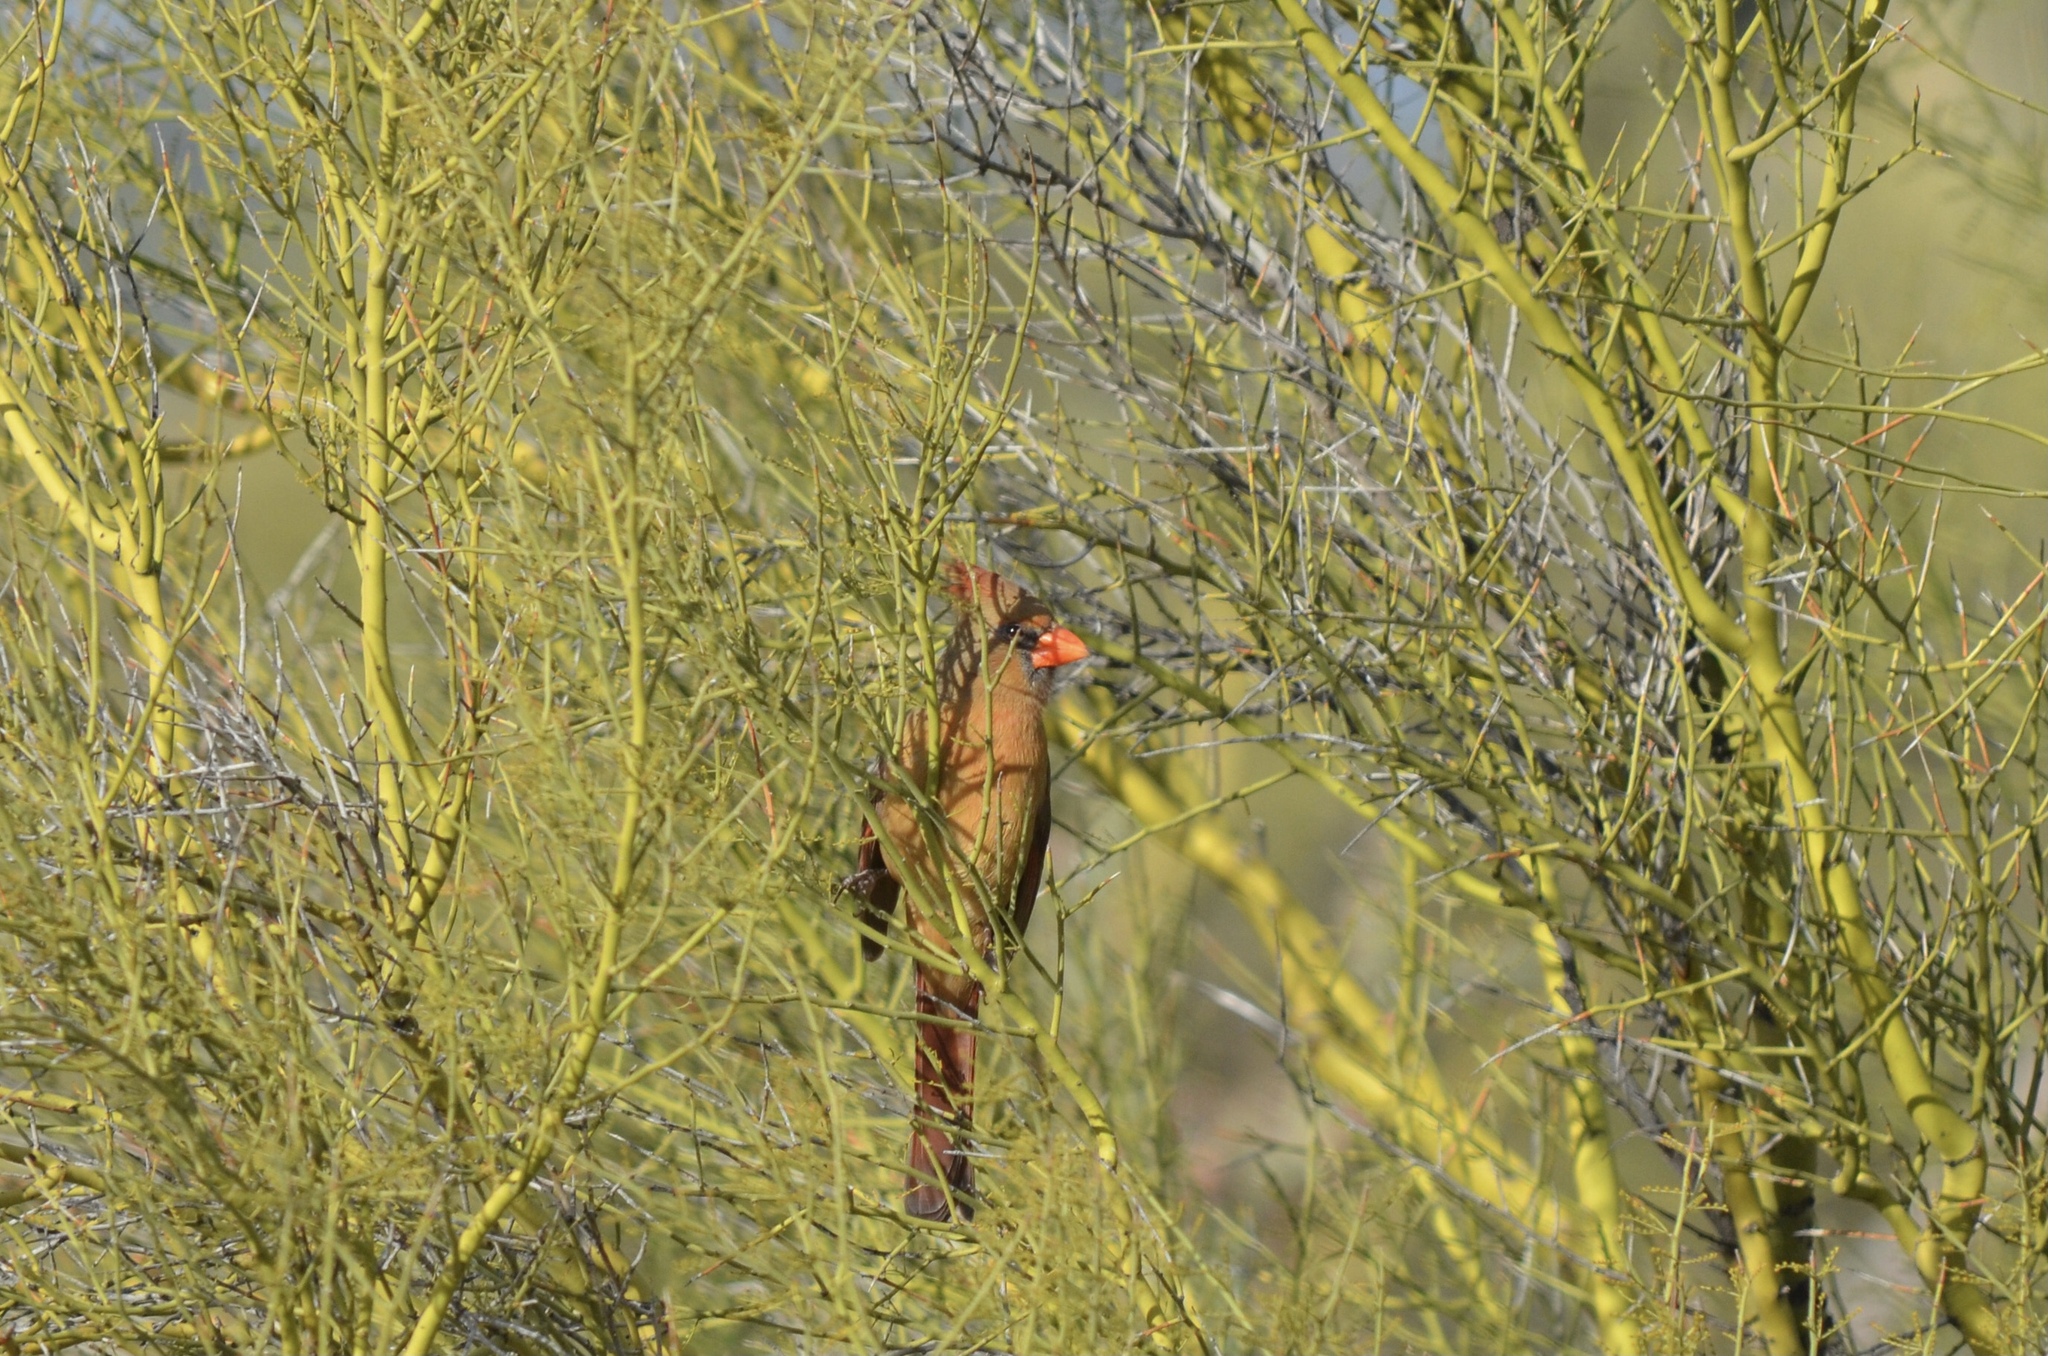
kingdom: Animalia
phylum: Chordata
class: Aves
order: Passeriformes
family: Cardinalidae
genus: Cardinalis
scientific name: Cardinalis cardinalis
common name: Northern cardinal
